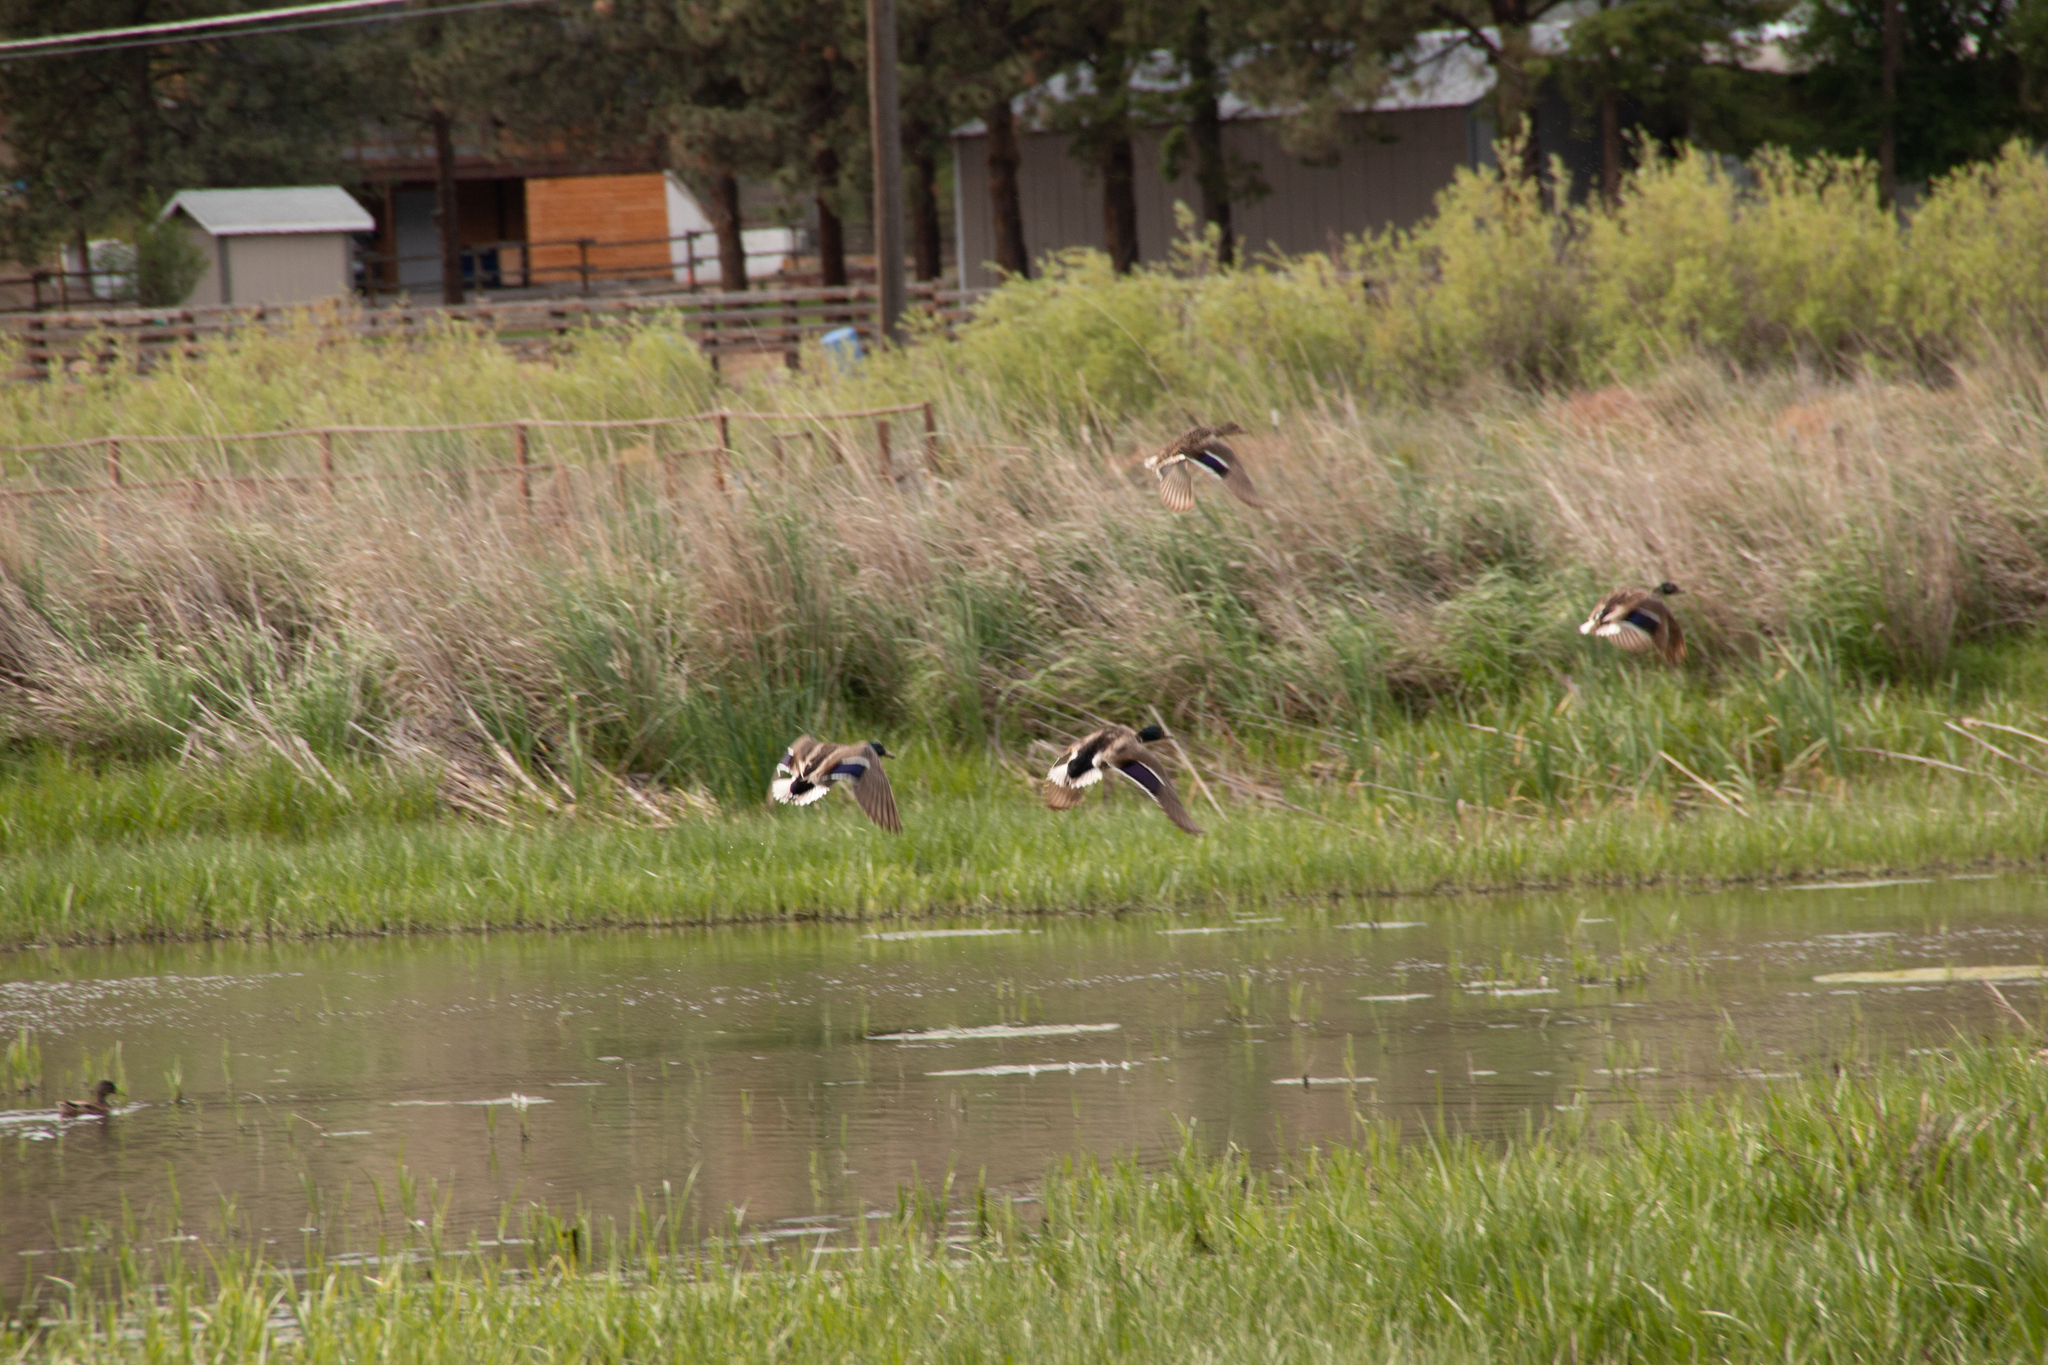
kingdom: Animalia
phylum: Chordata
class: Aves
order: Anseriformes
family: Anatidae
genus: Anas
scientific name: Anas platyrhynchos
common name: Mallard
